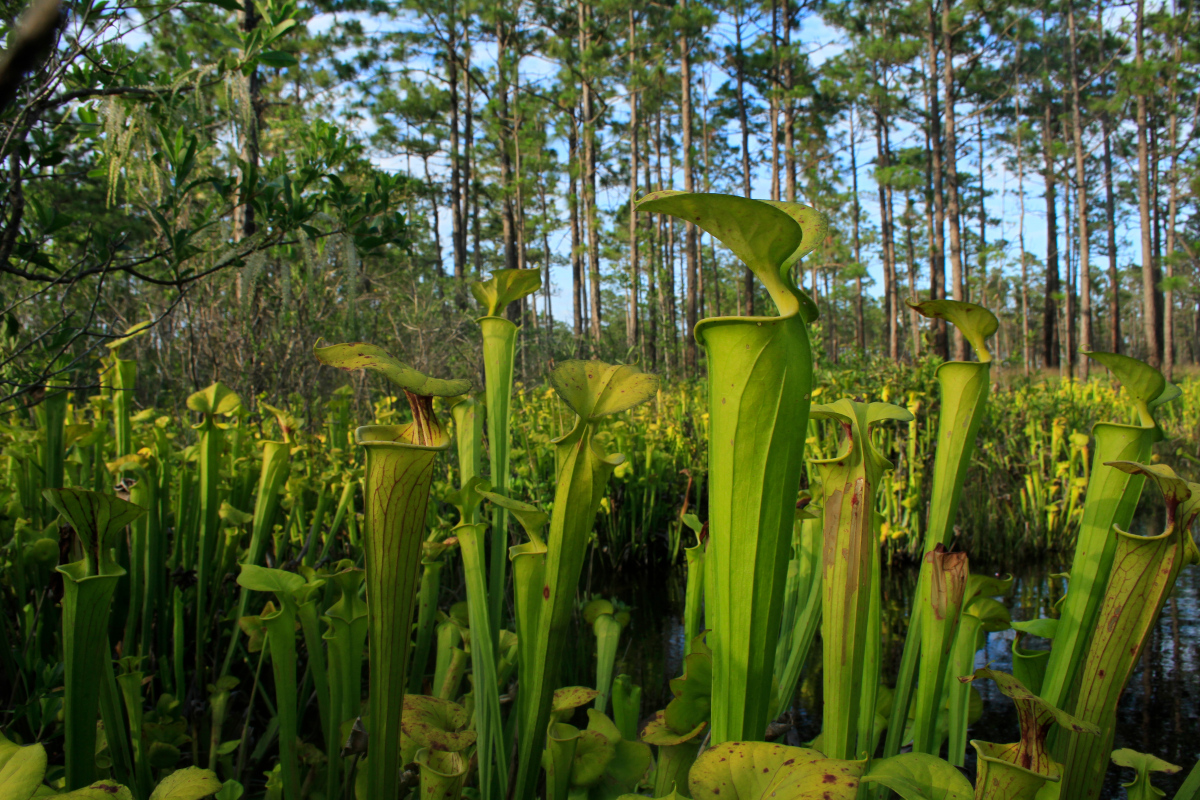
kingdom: Plantae
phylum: Tracheophyta
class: Magnoliopsida
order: Ericales
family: Sarraceniaceae
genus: Sarracenia
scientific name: Sarracenia flava
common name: Trumpets
